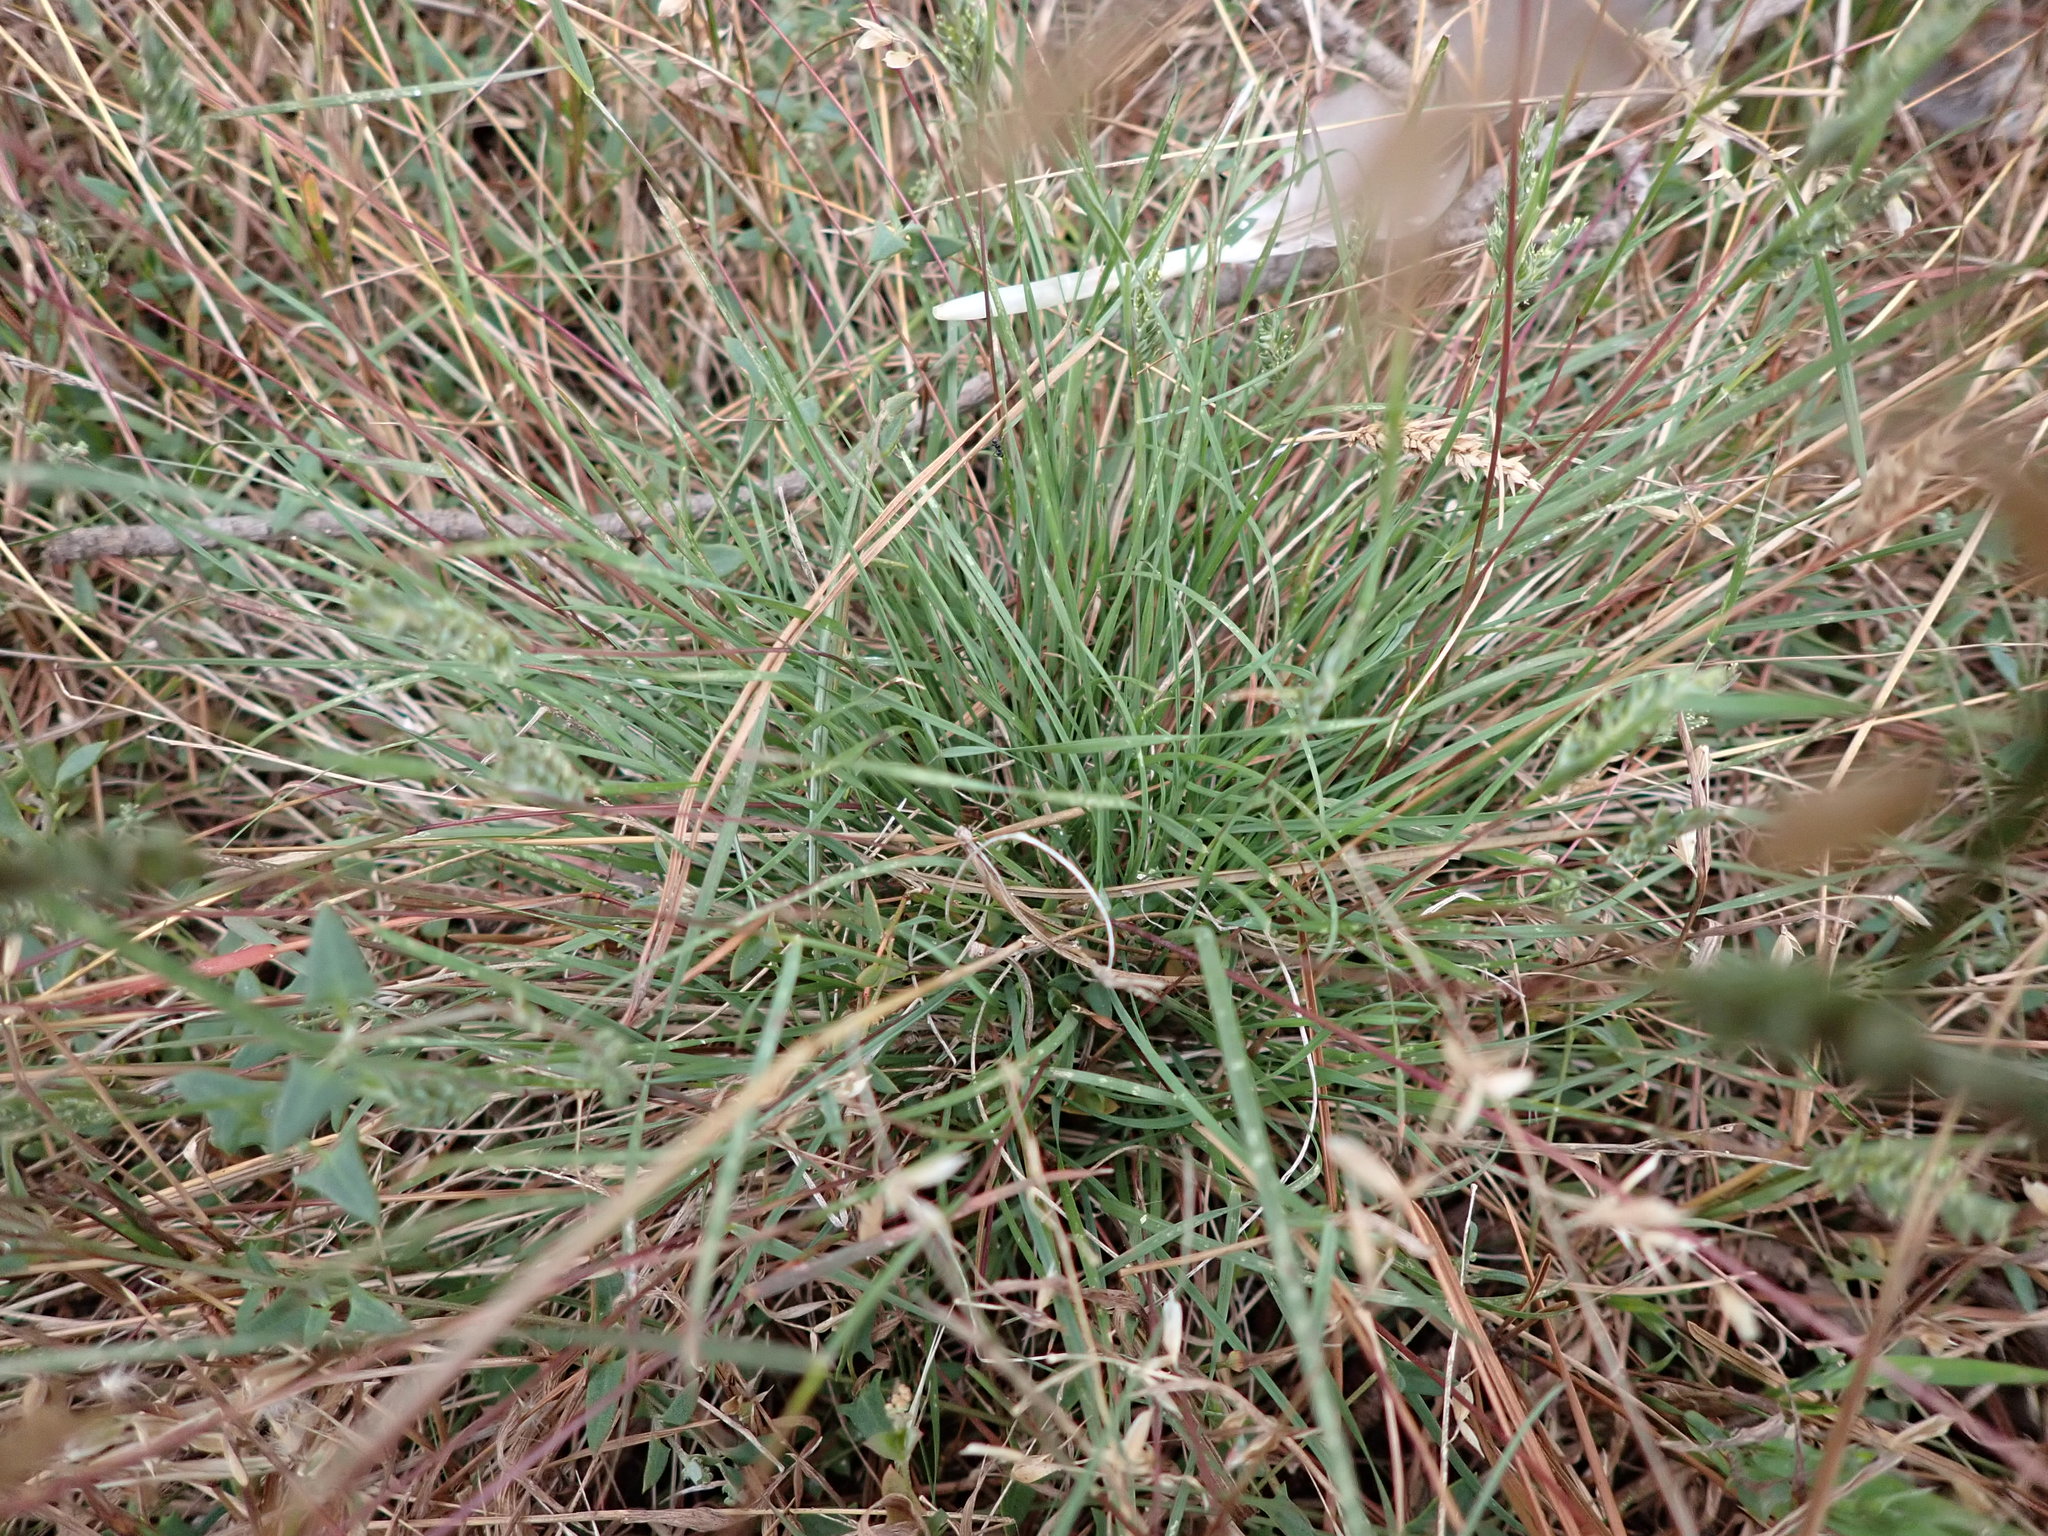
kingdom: Plantae
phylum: Tracheophyta
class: Liliopsida
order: Poales
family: Poaceae
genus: Tribolium
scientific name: Tribolium obliterum
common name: Capetown grass
